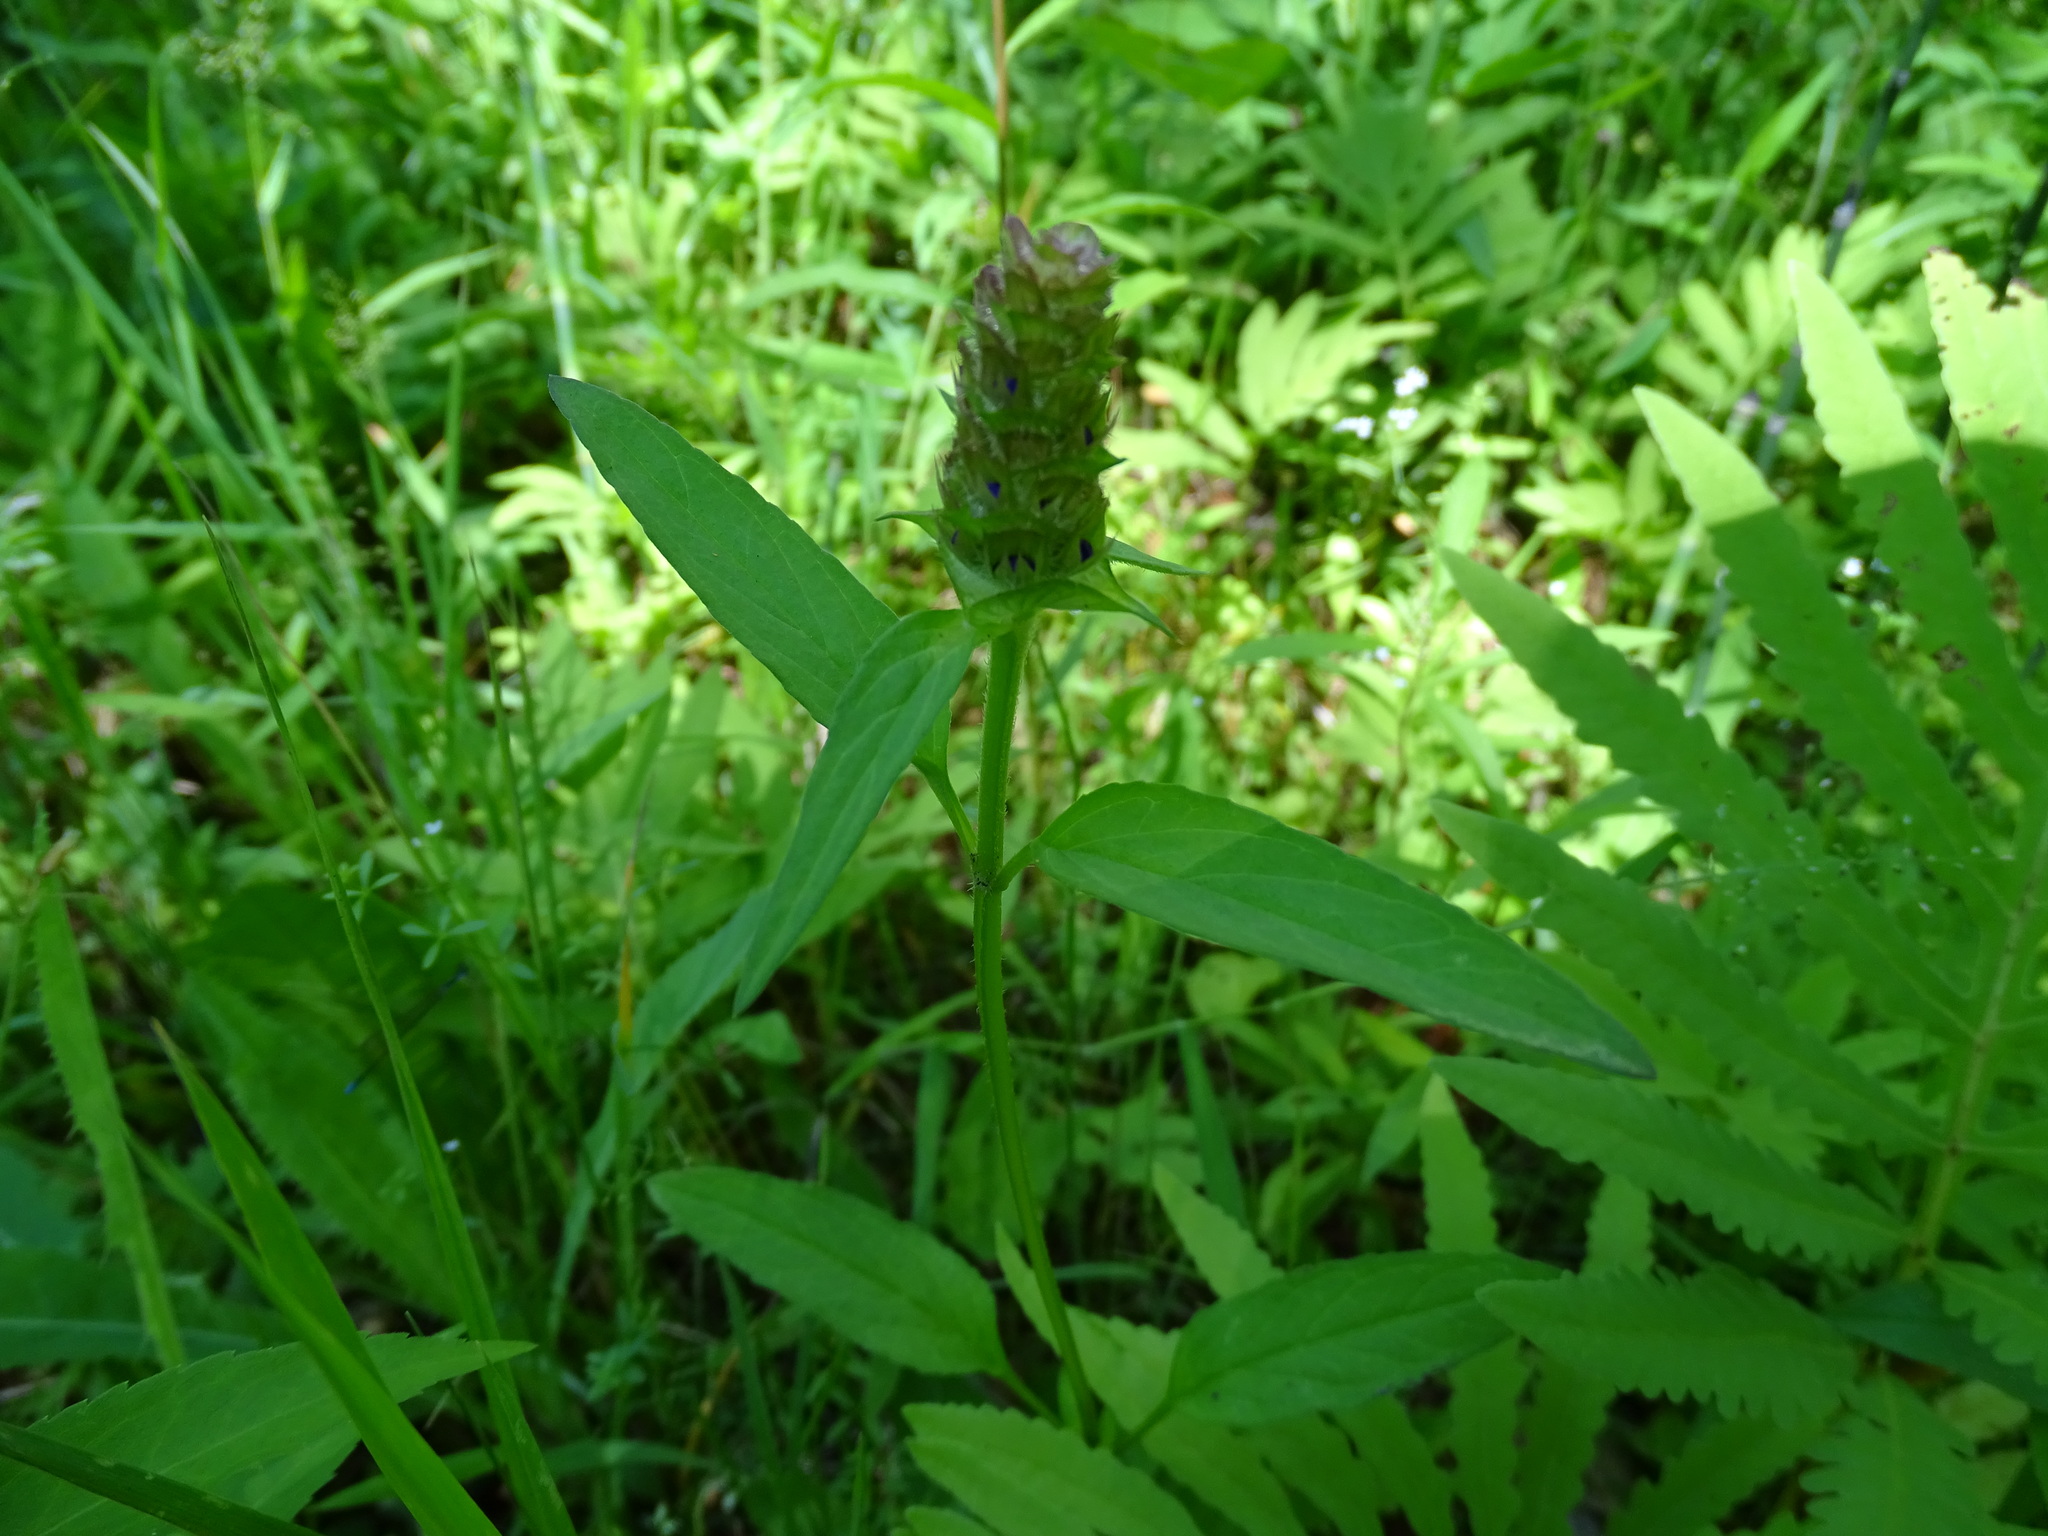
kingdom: Plantae
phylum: Tracheophyta
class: Magnoliopsida
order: Lamiales
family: Lamiaceae
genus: Prunella
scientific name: Prunella vulgaris
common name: Heal-all
